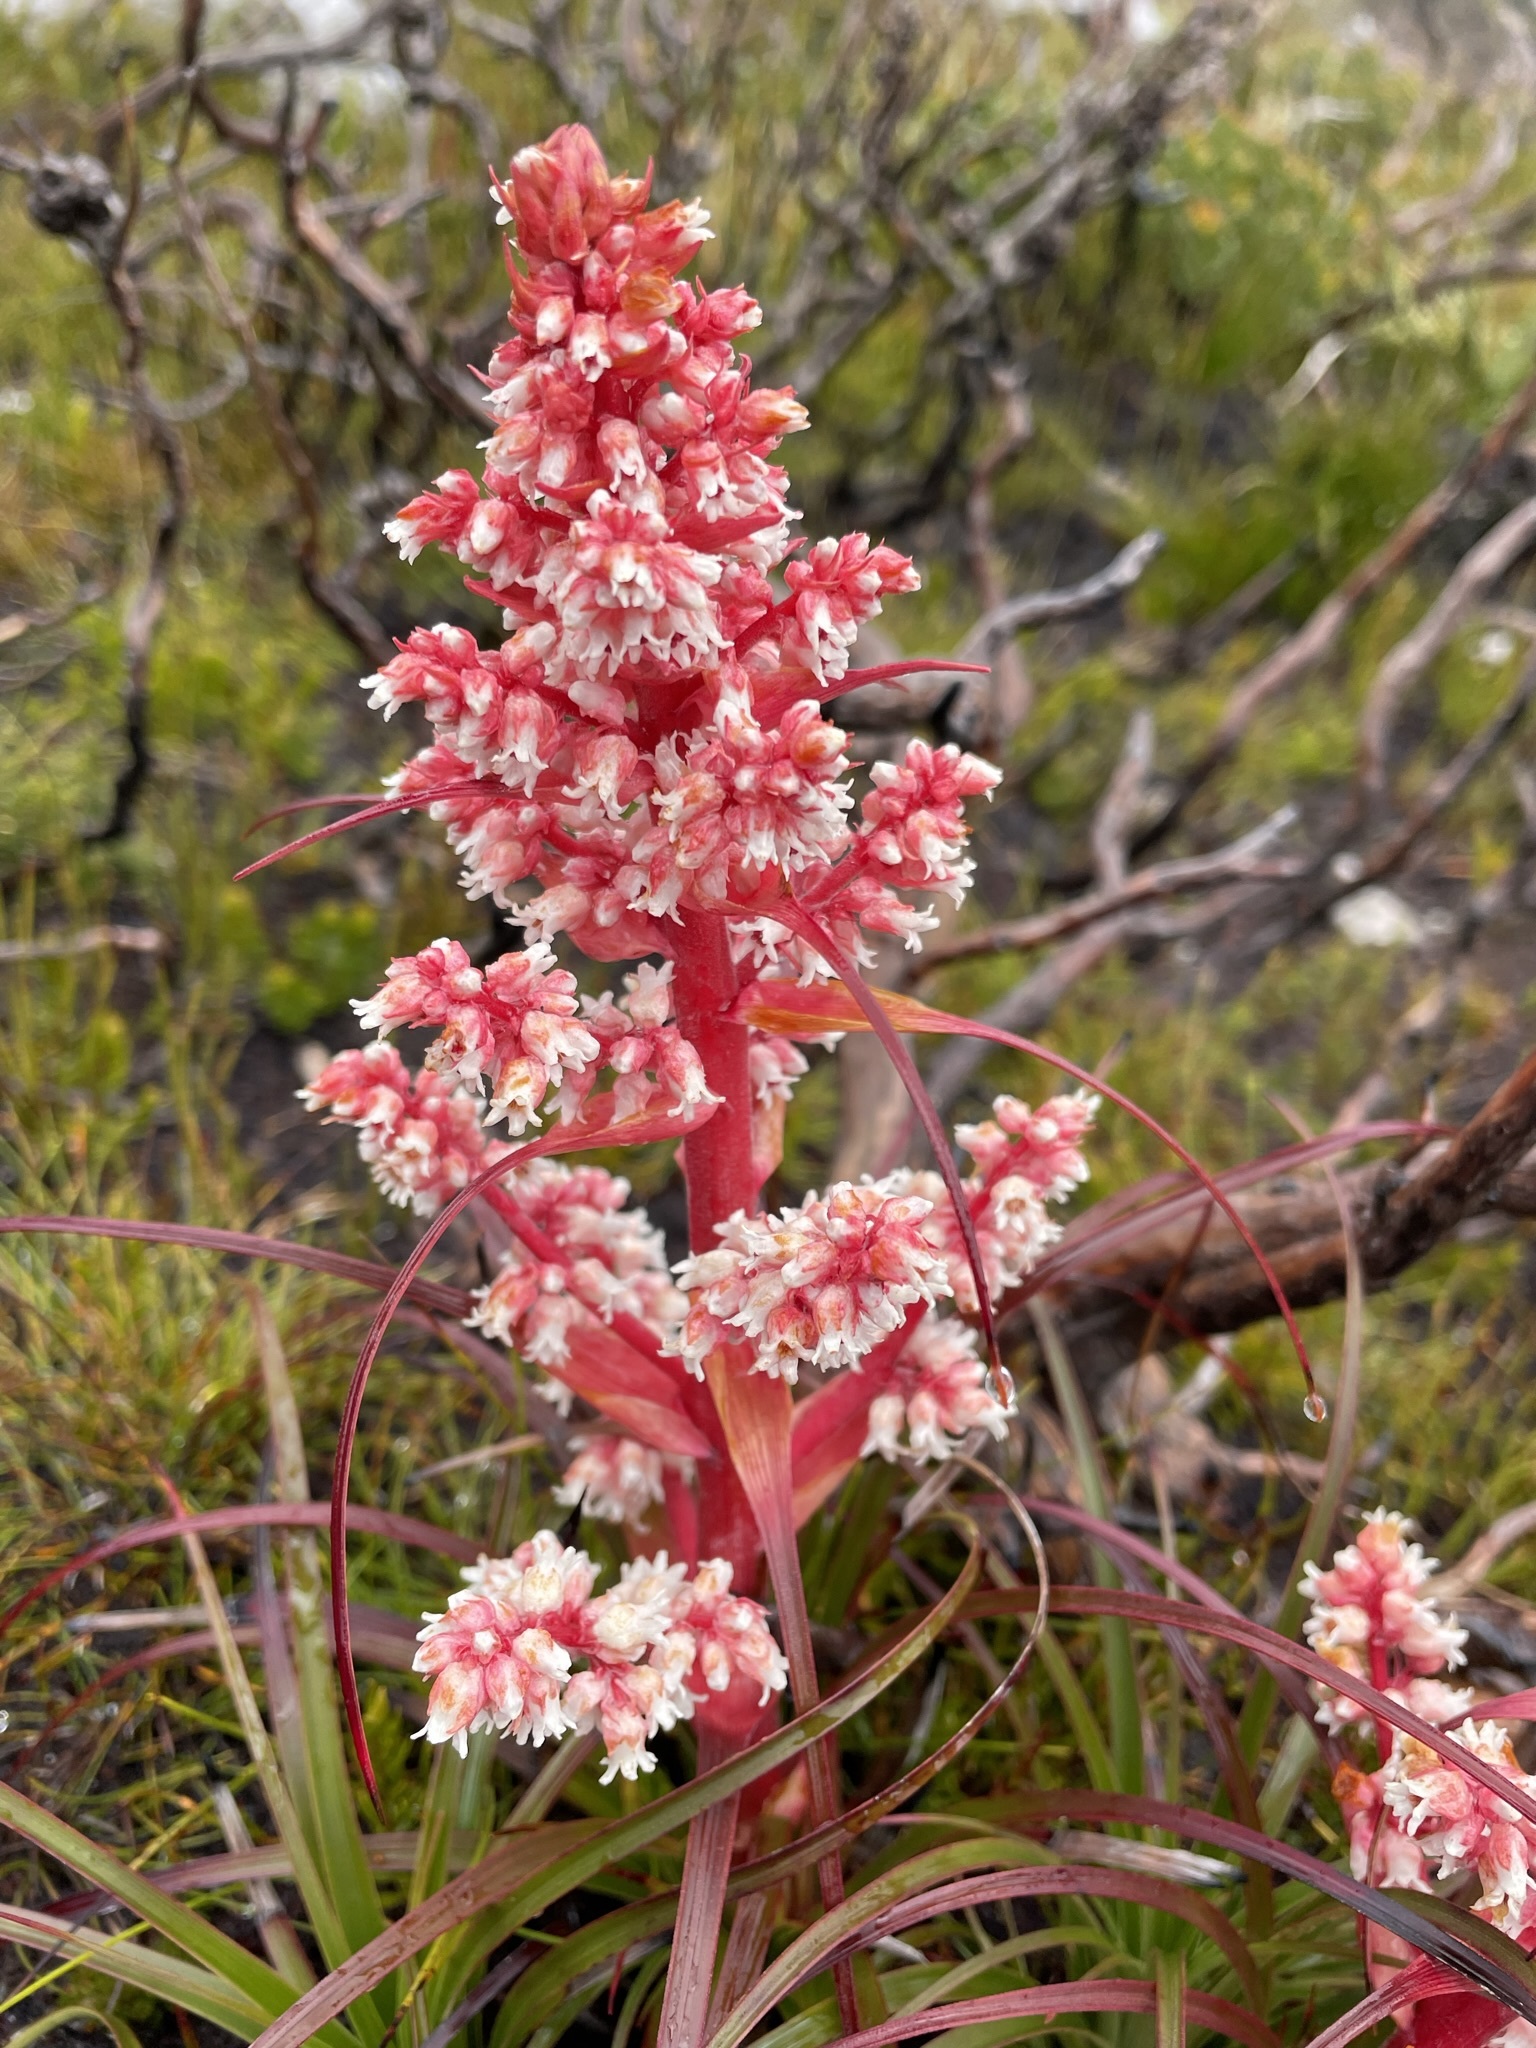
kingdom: Plantae
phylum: Tracheophyta
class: Magnoliopsida
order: Ericales
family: Ericaceae
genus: Dracophyllum
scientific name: Dracophyllum milliganii
